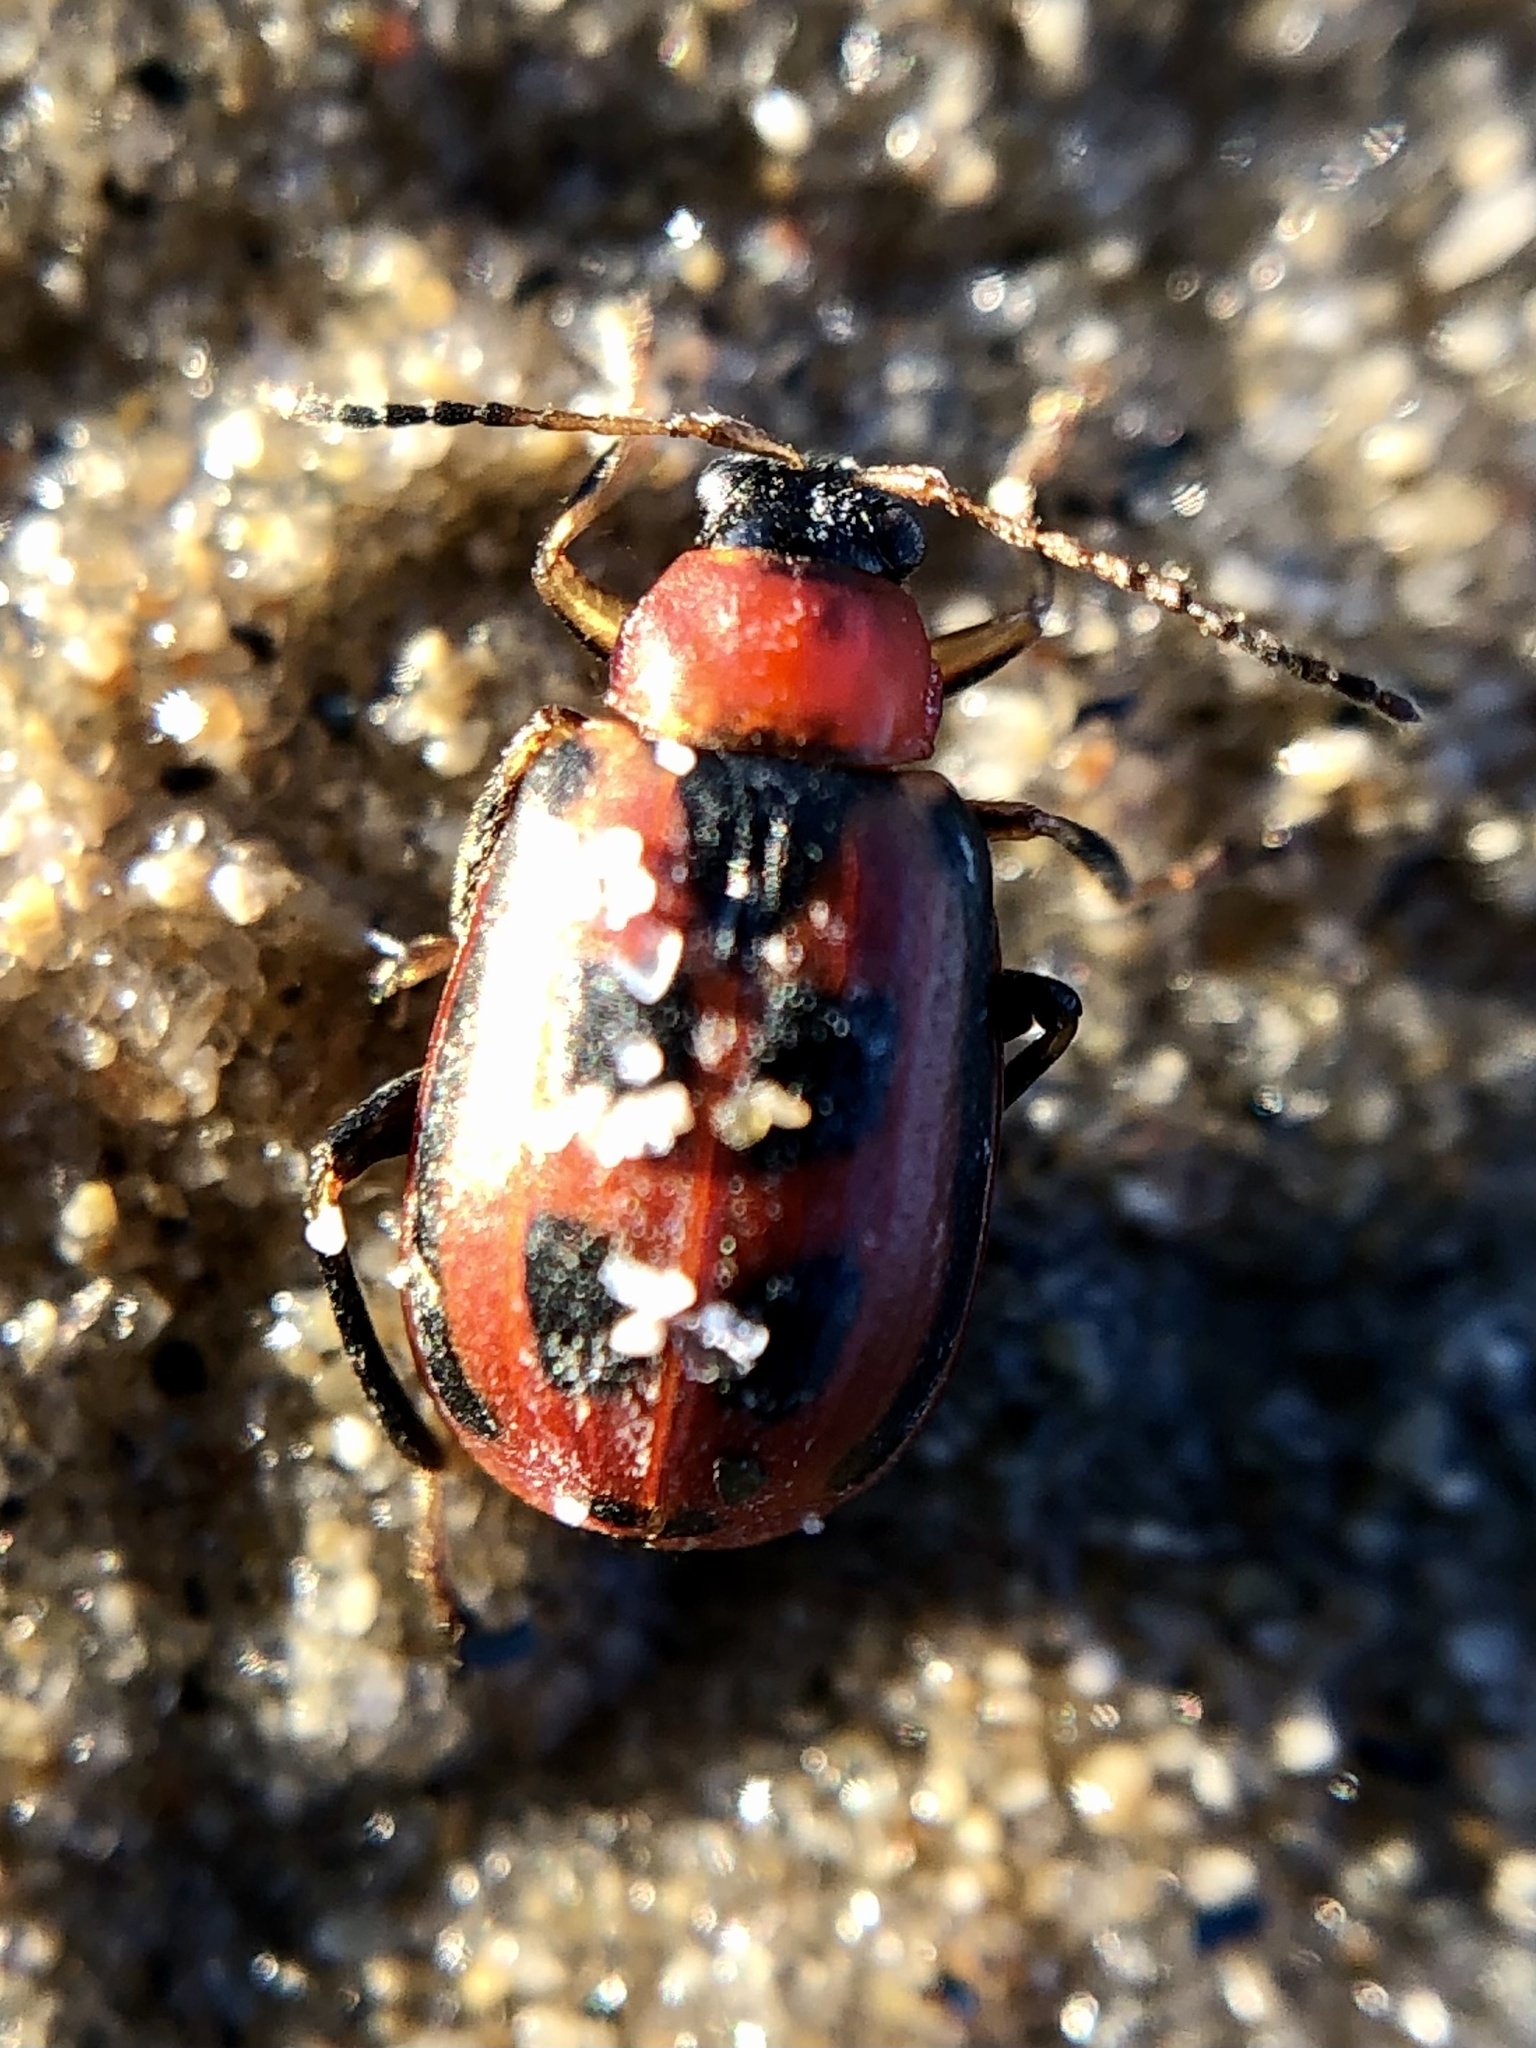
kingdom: Animalia
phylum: Arthropoda
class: Insecta
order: Coleoptera
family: Chrysomelidae
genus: Cerotoma
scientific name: Cerotoma trifurcata
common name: Bean leaf beetle
